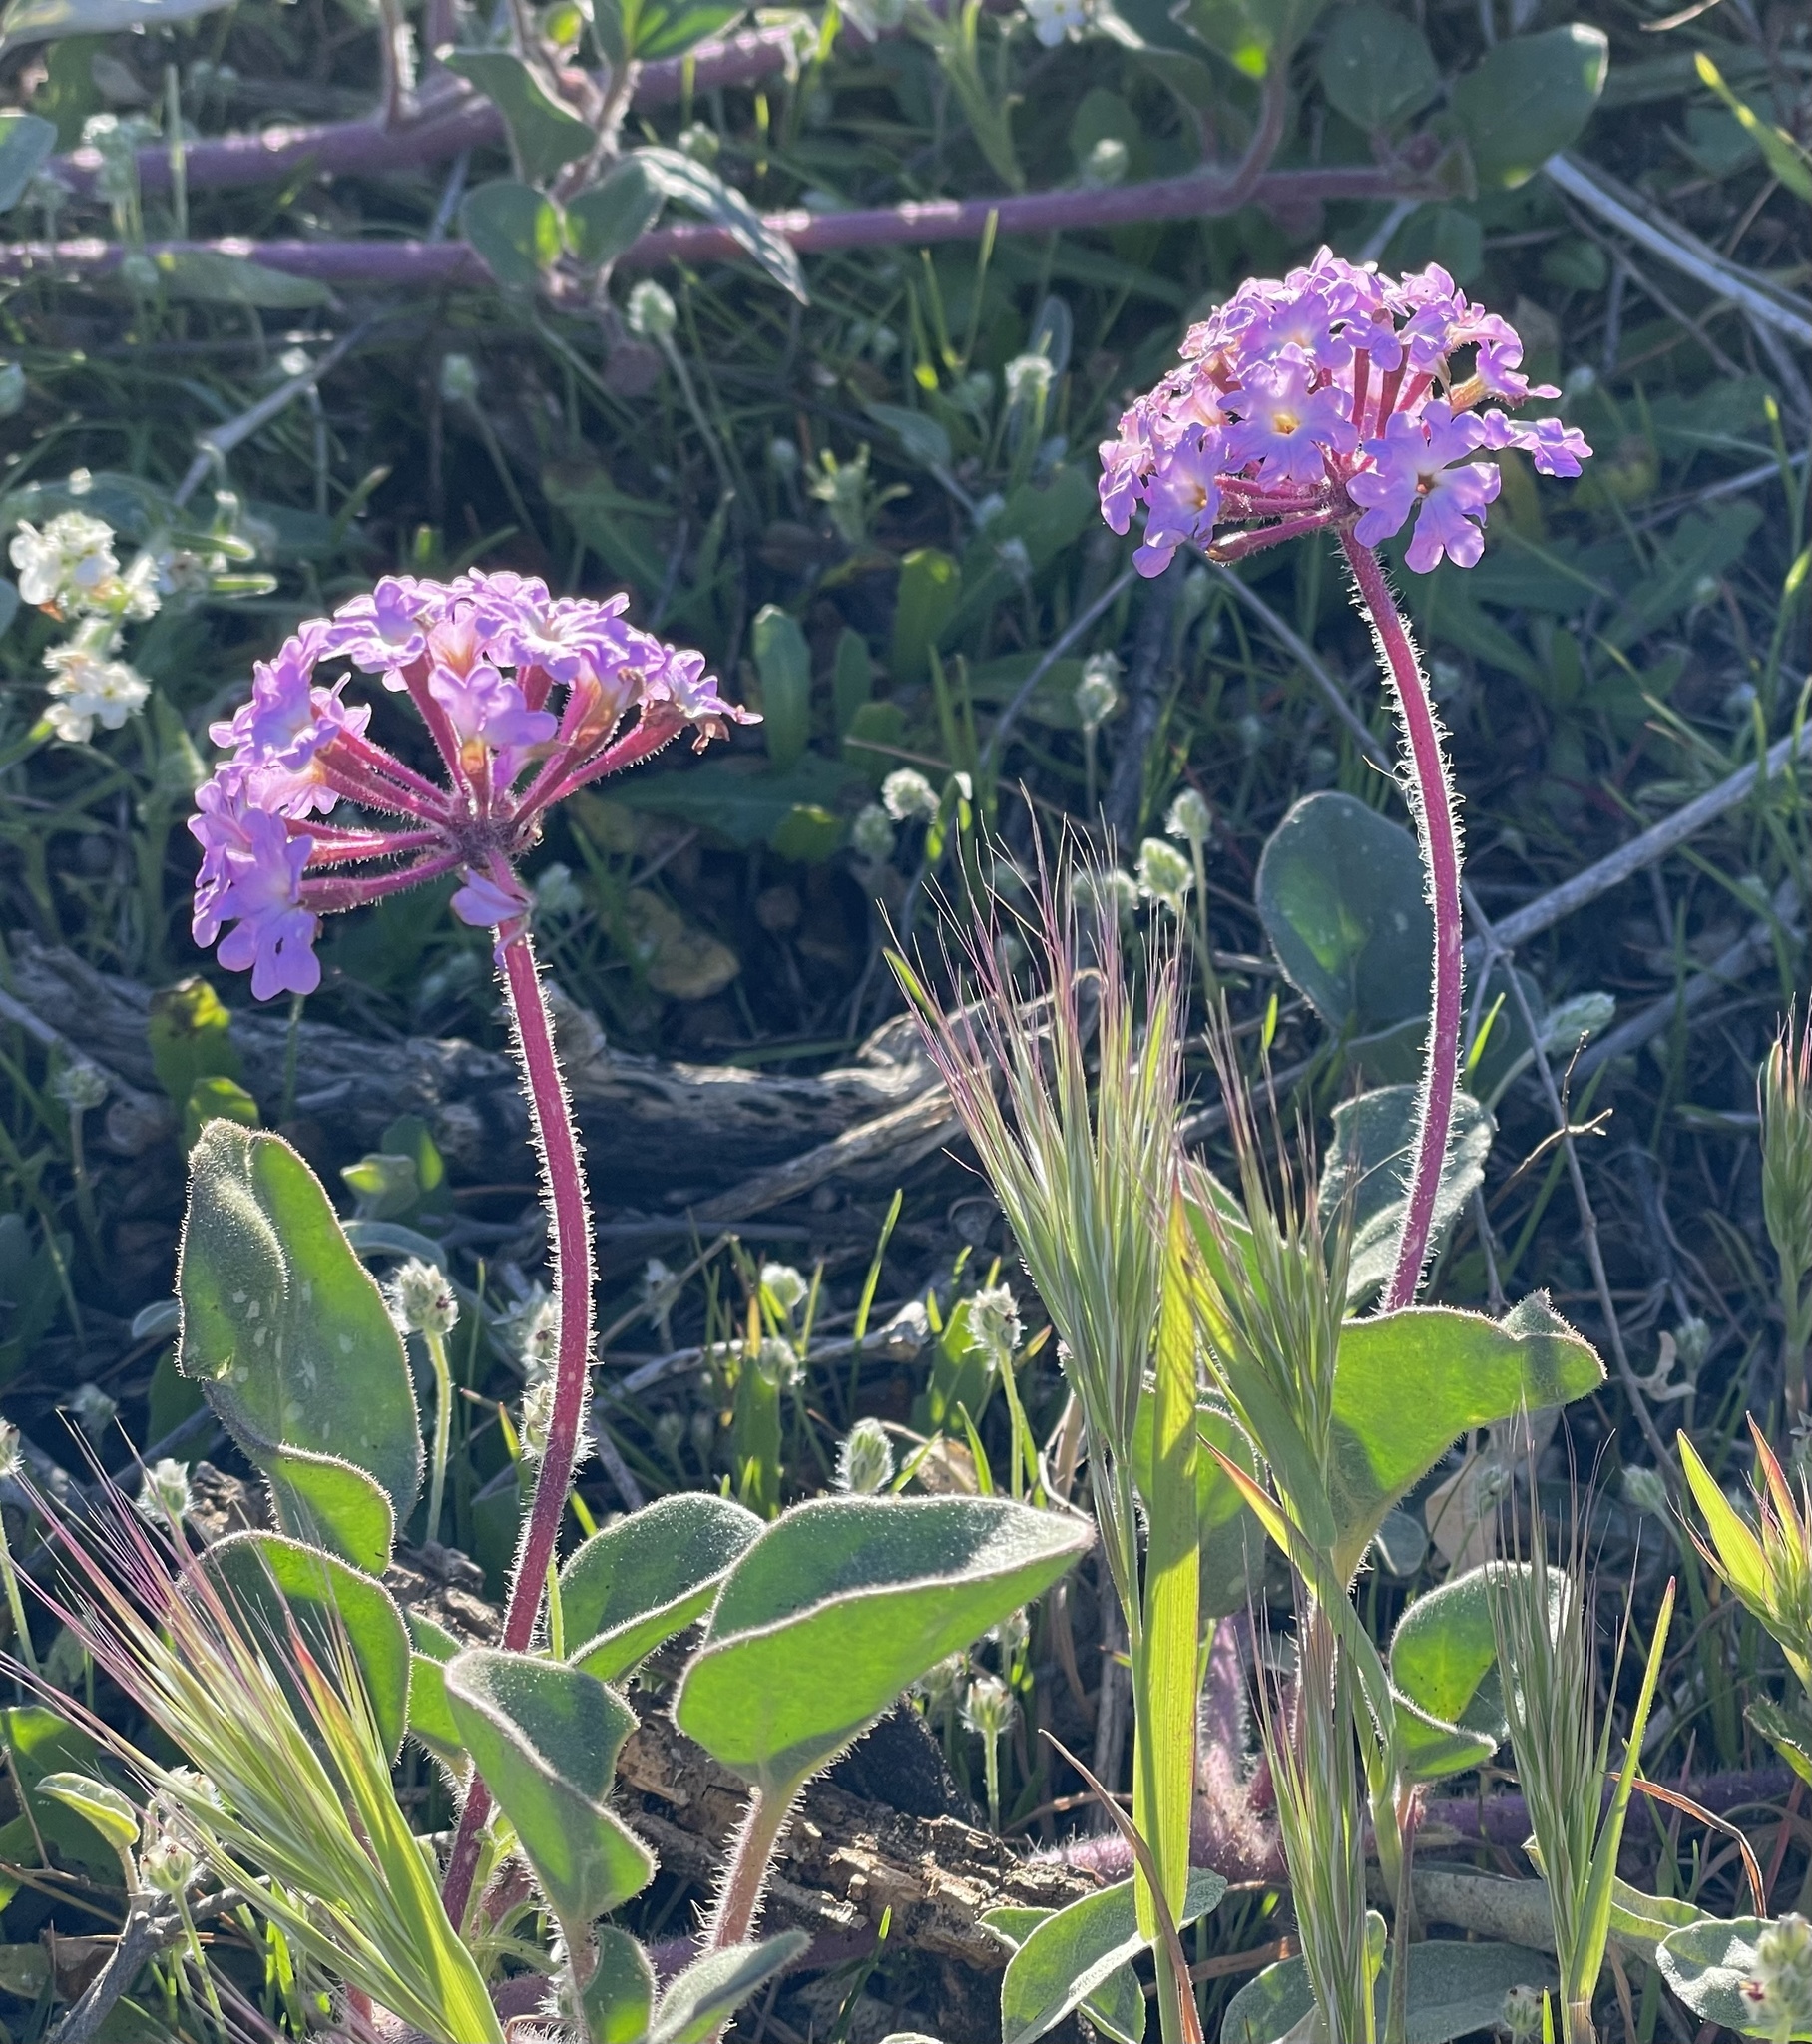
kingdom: Plantae
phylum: Tracheophyta
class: Magnoliopsida
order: Caryophyllales
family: Nyctaginaceae
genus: Abronia
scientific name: Abronia umbellata
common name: Sand-verbena
